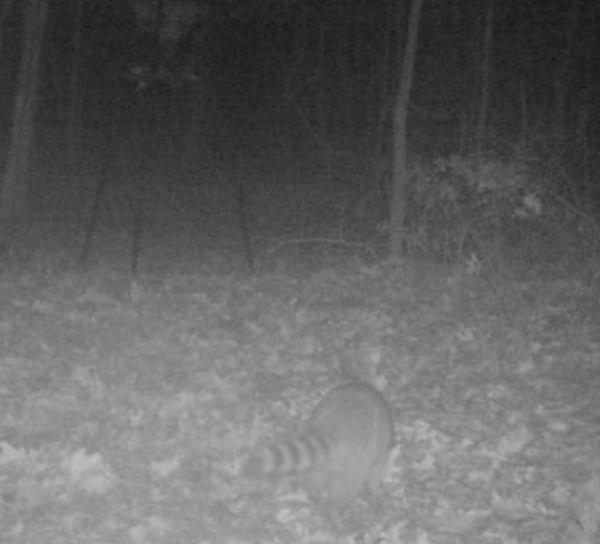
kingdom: Animalia
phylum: Chordata
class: Mammalia
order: Carnivora
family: Procyonidae
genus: Procyon
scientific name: Procyon lotor
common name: Raccoon
